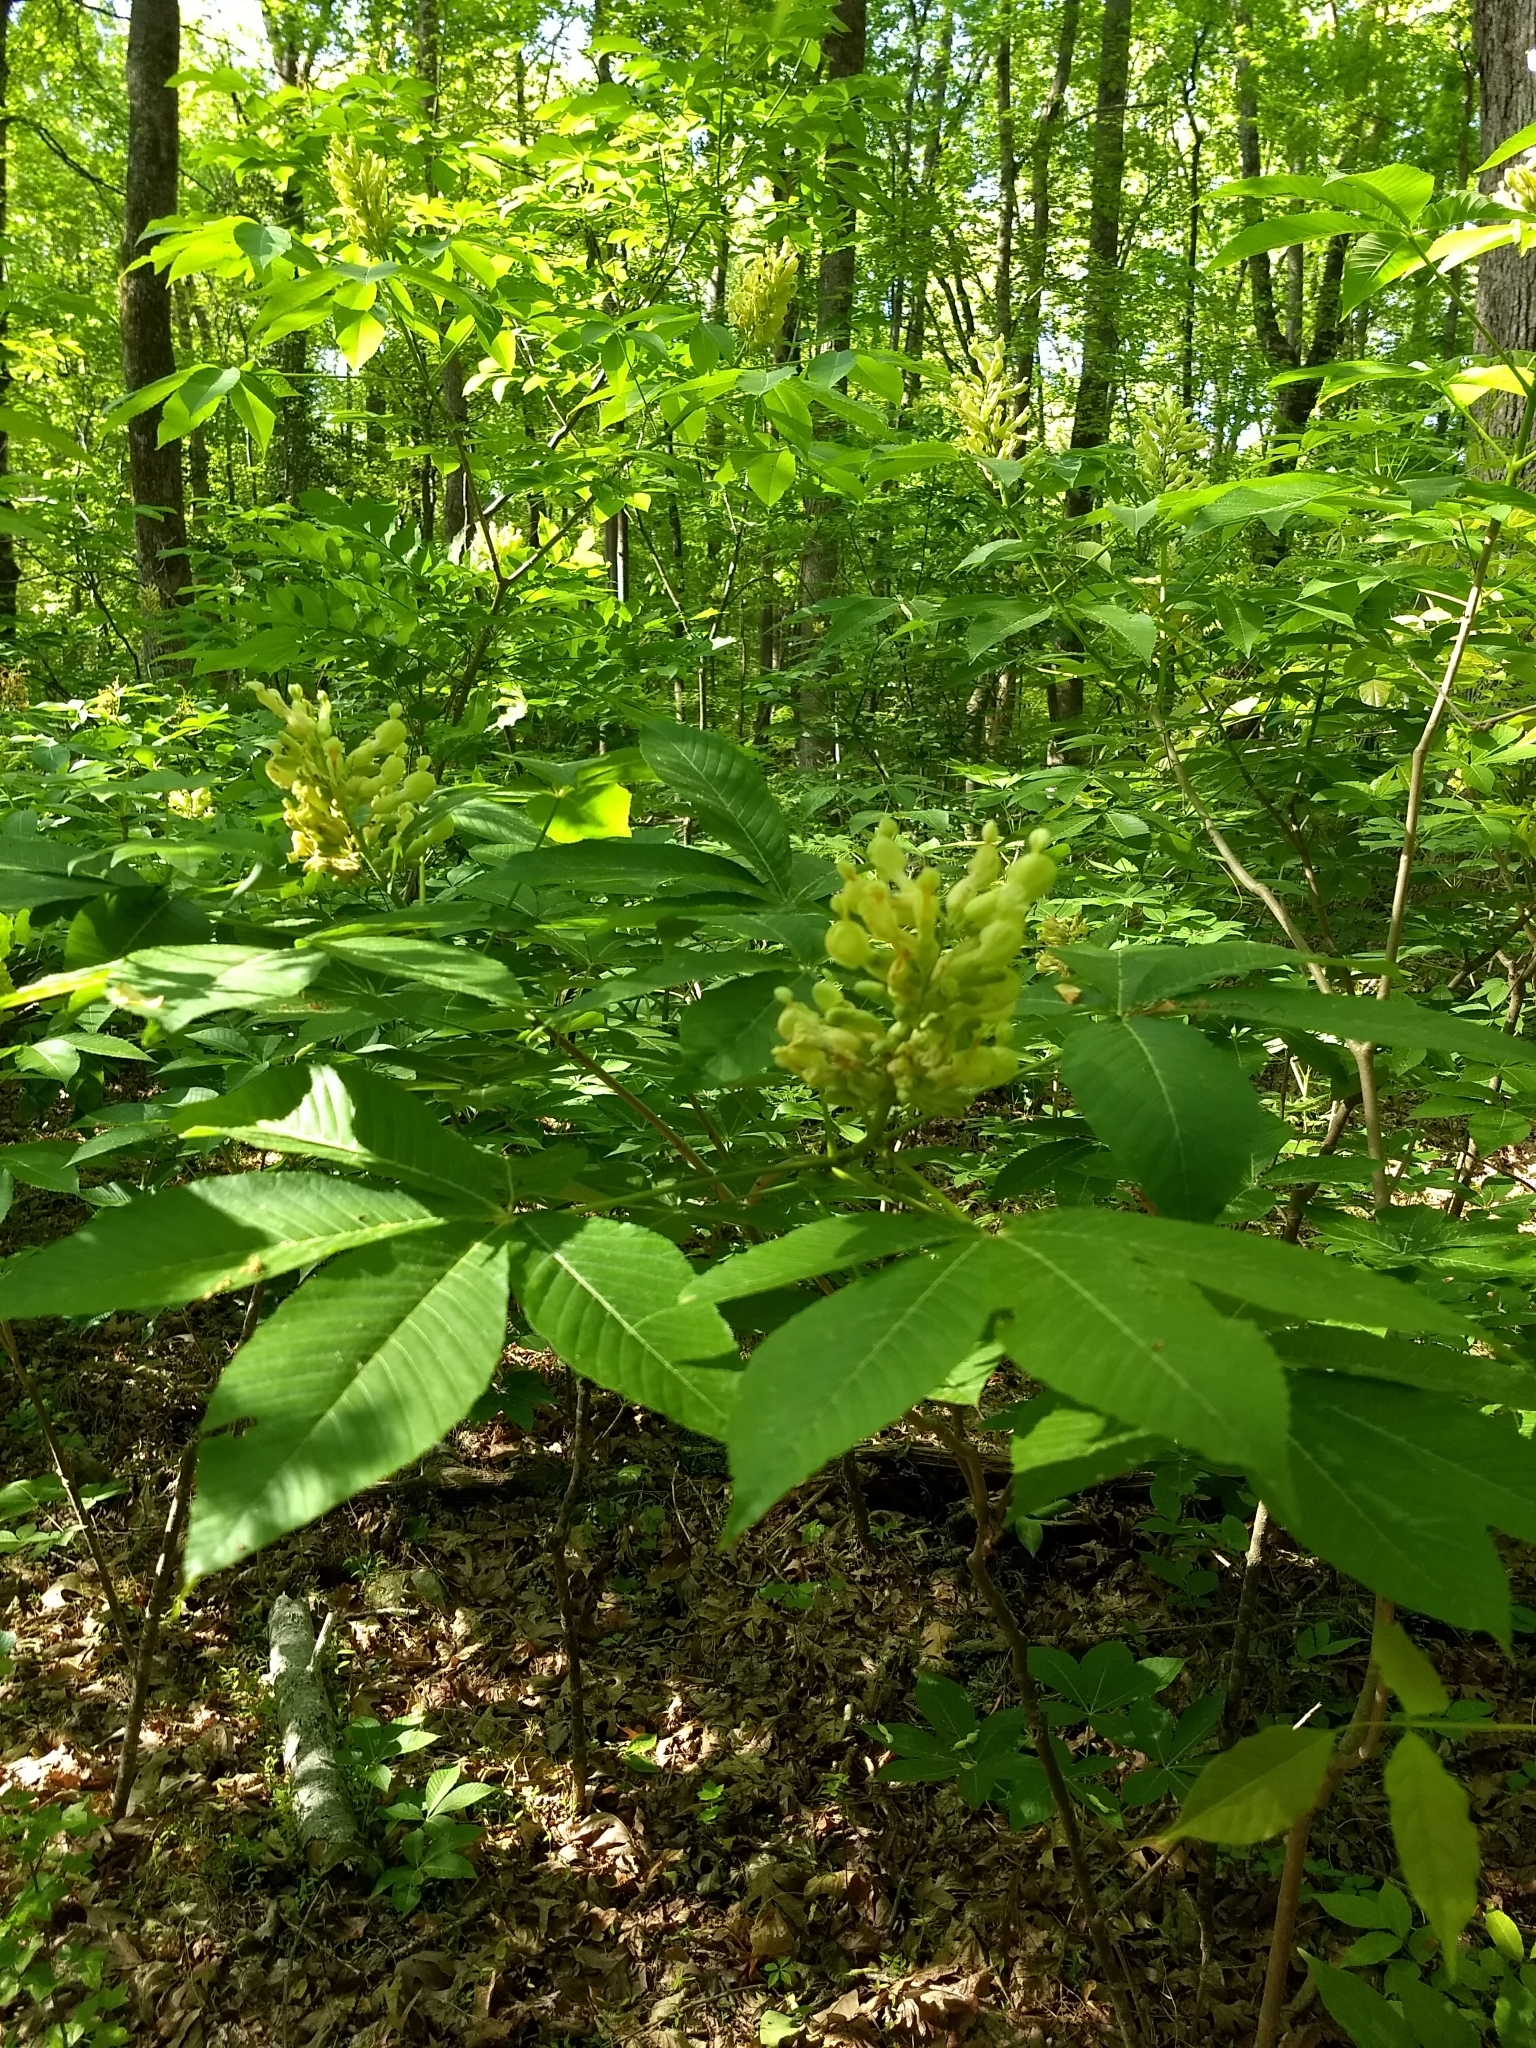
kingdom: Plantae
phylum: Tracheophyta
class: Magnoliopsida
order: Sapindales
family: Sapindaceae
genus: Aesculus
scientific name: Aesculus sylvatica
